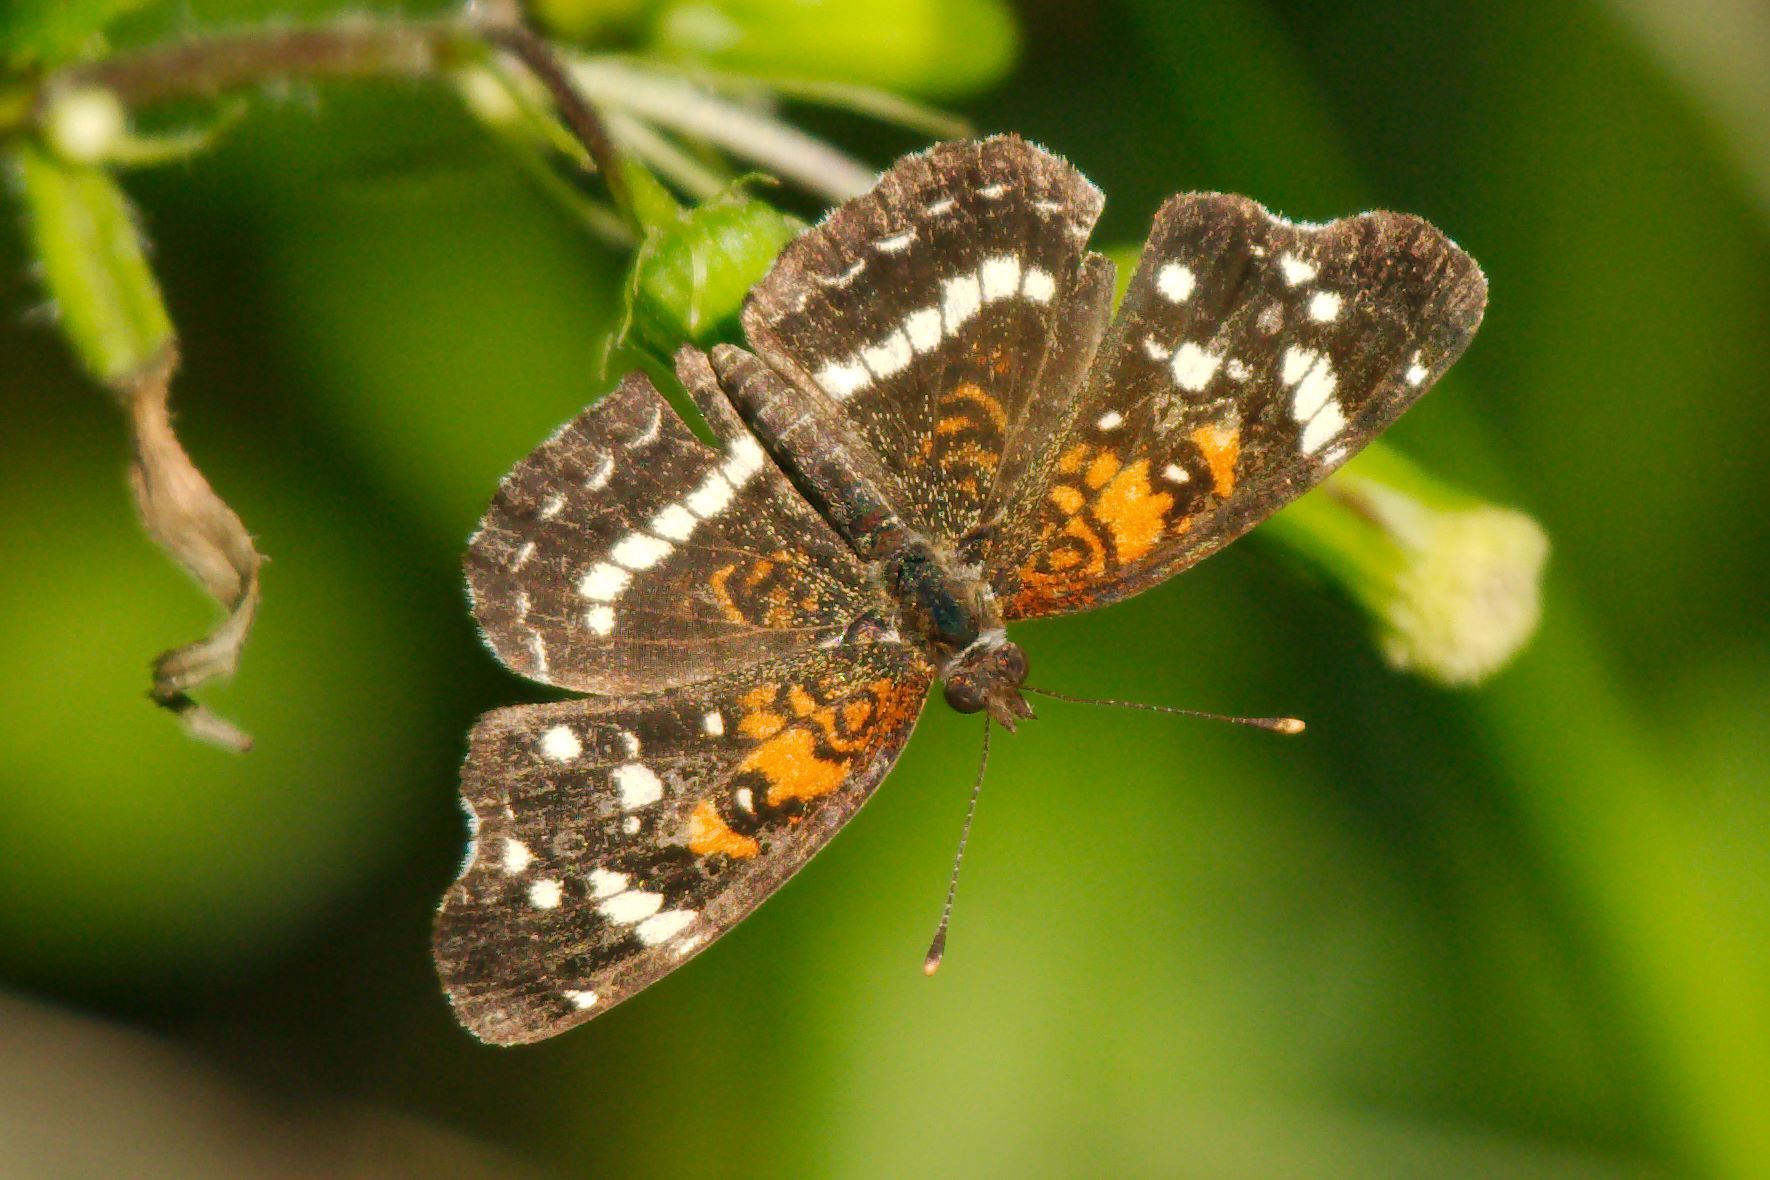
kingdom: Animalia
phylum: Arthropoda
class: Insecta
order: Lepidoptera
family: Nymphalidae
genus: Anthanassa
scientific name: Anthanassa taxana
